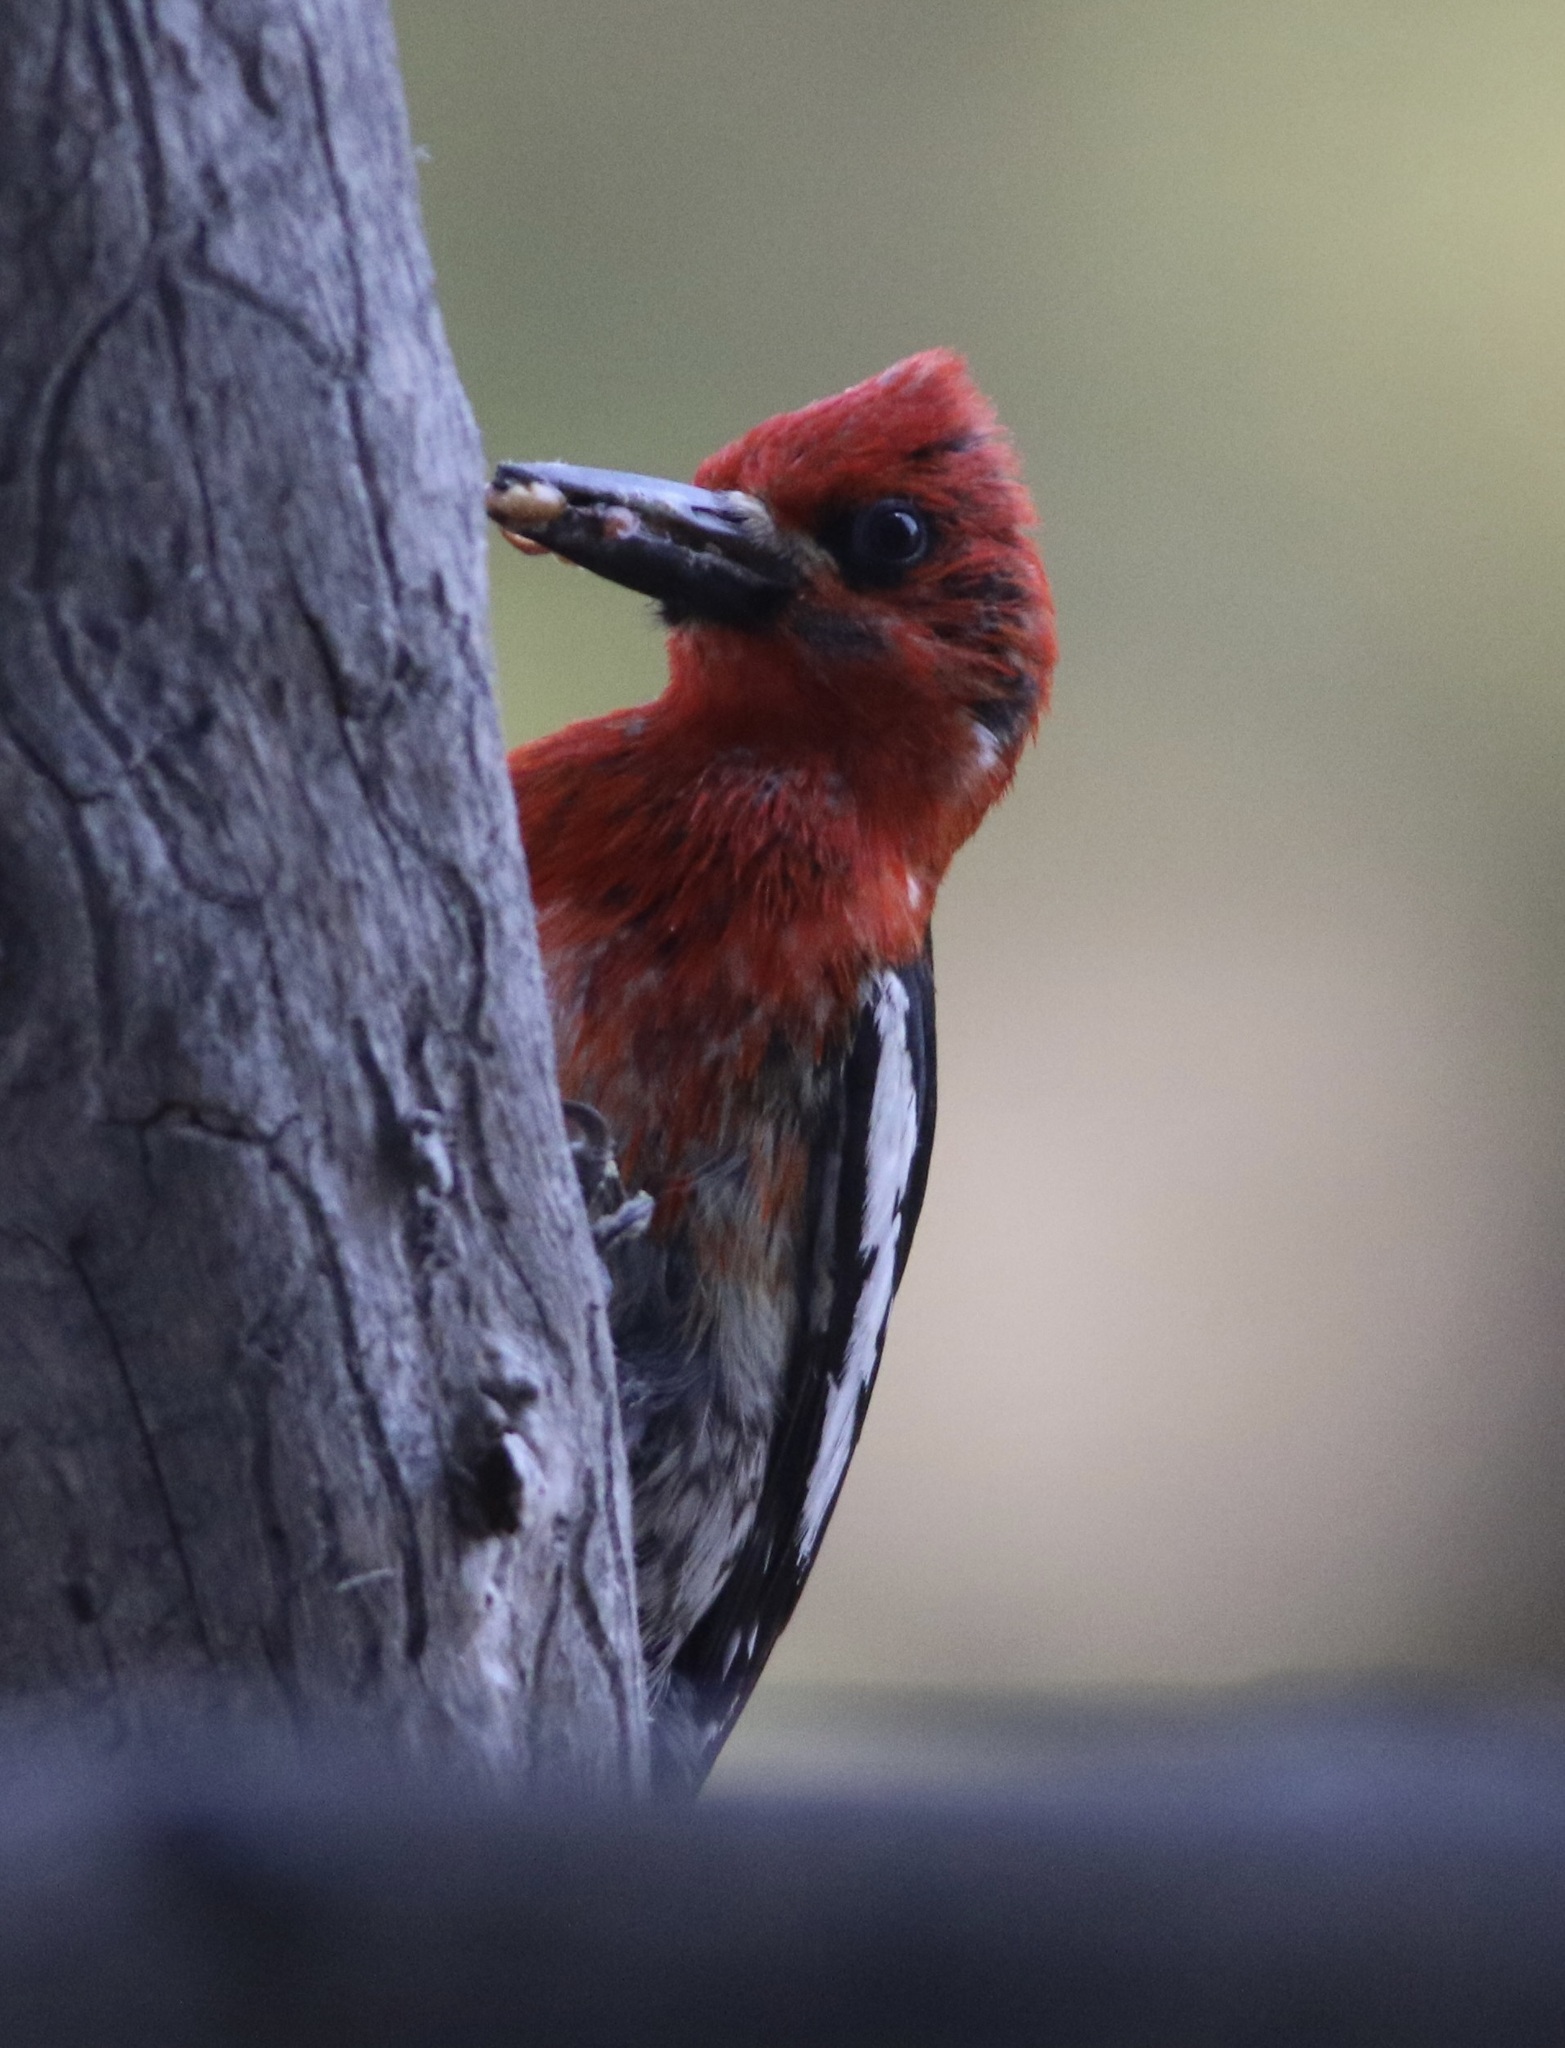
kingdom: Animalia
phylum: Chordata
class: Aves
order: Piciformes
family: Picidae
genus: Sphyrapicus
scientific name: Sphyrapicus ruber
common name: Red-breasted sapsucker
